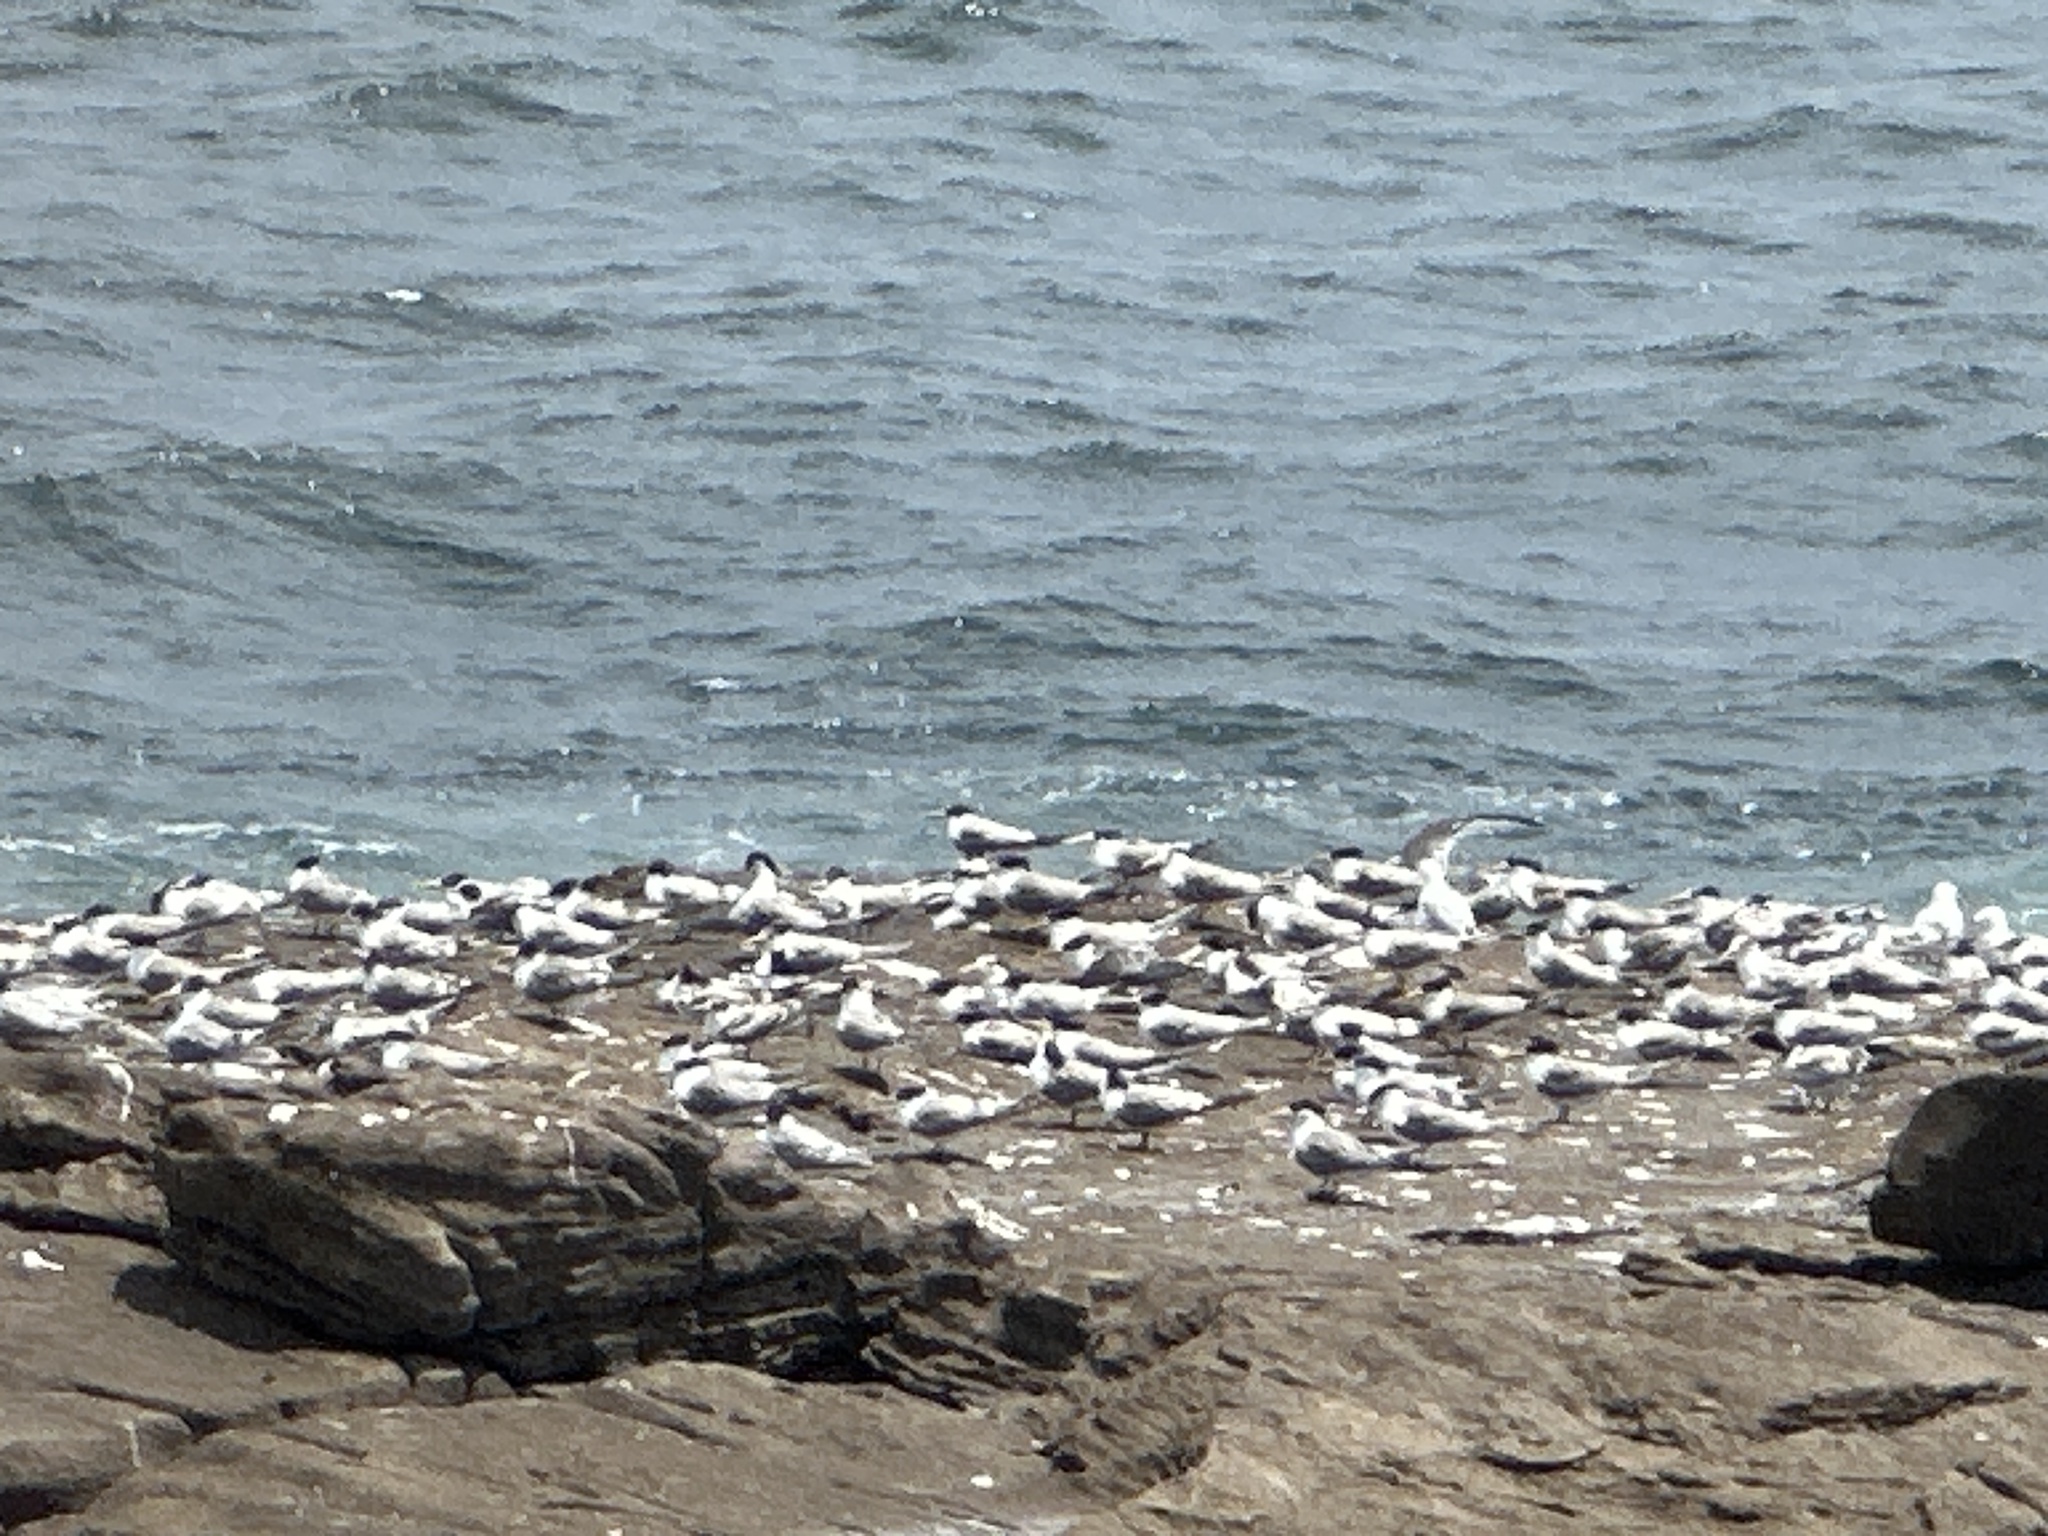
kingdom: Animalia
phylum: Chordata
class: Aves
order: Charadriiformes
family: Laridae
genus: Thalasseus
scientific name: Thalasseus bergii
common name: Greater crested tern
